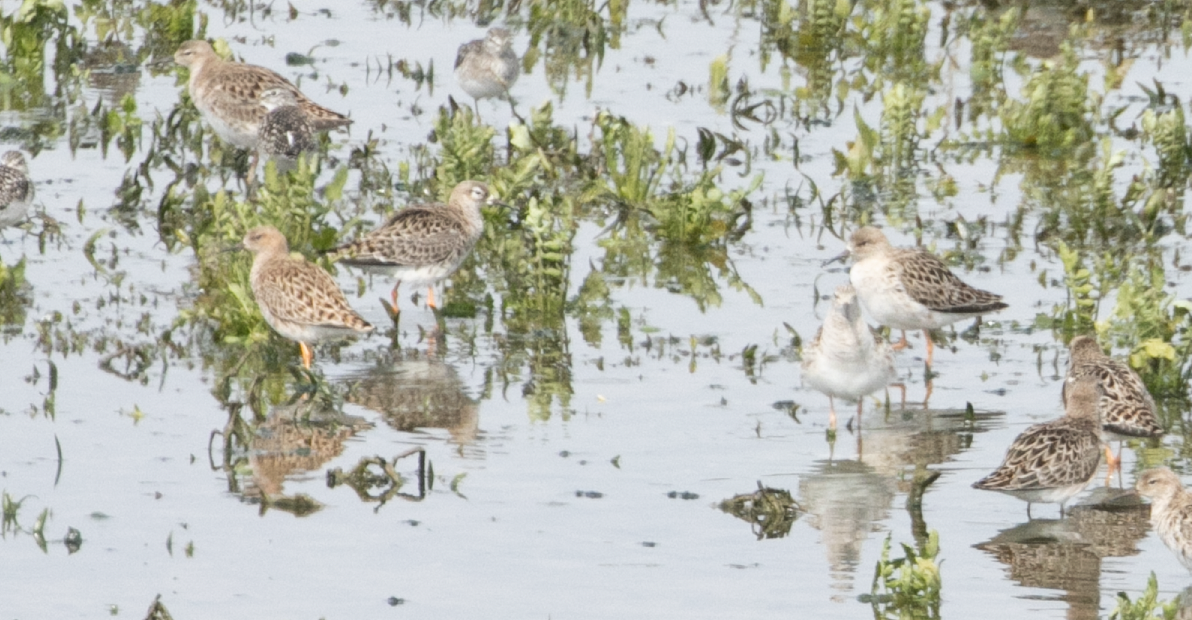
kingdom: Animalia
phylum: Chordata
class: Aves
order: Charadriiformes
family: Scolopacidae
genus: Calidris
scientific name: Calidris pugnax
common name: Ruff
